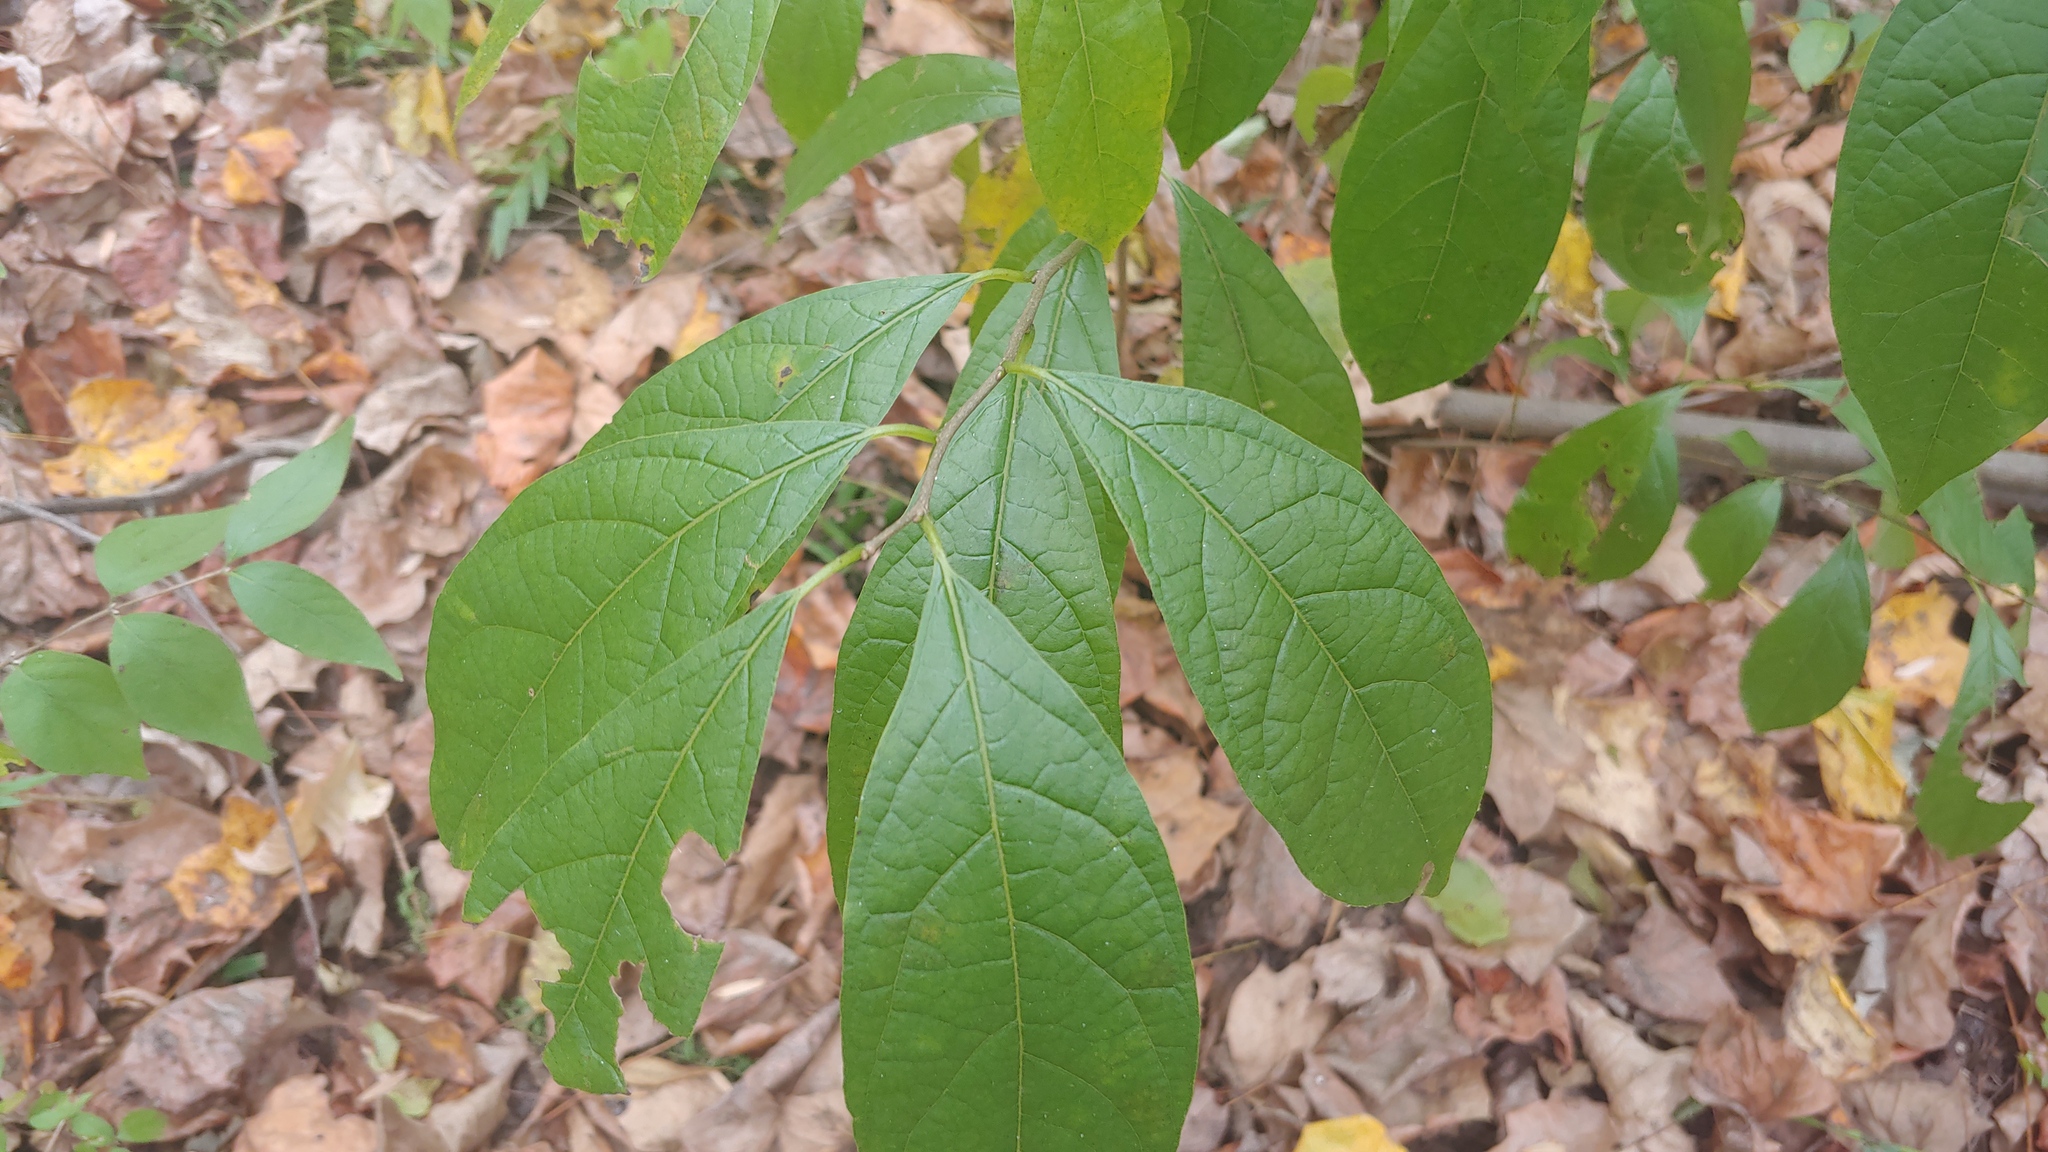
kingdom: Plantae
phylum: Tracheophyta
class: Magnoliopsida
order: Laurales
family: Lauraceae
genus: Lindera
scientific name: Lindera benzoin
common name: Spicebush
